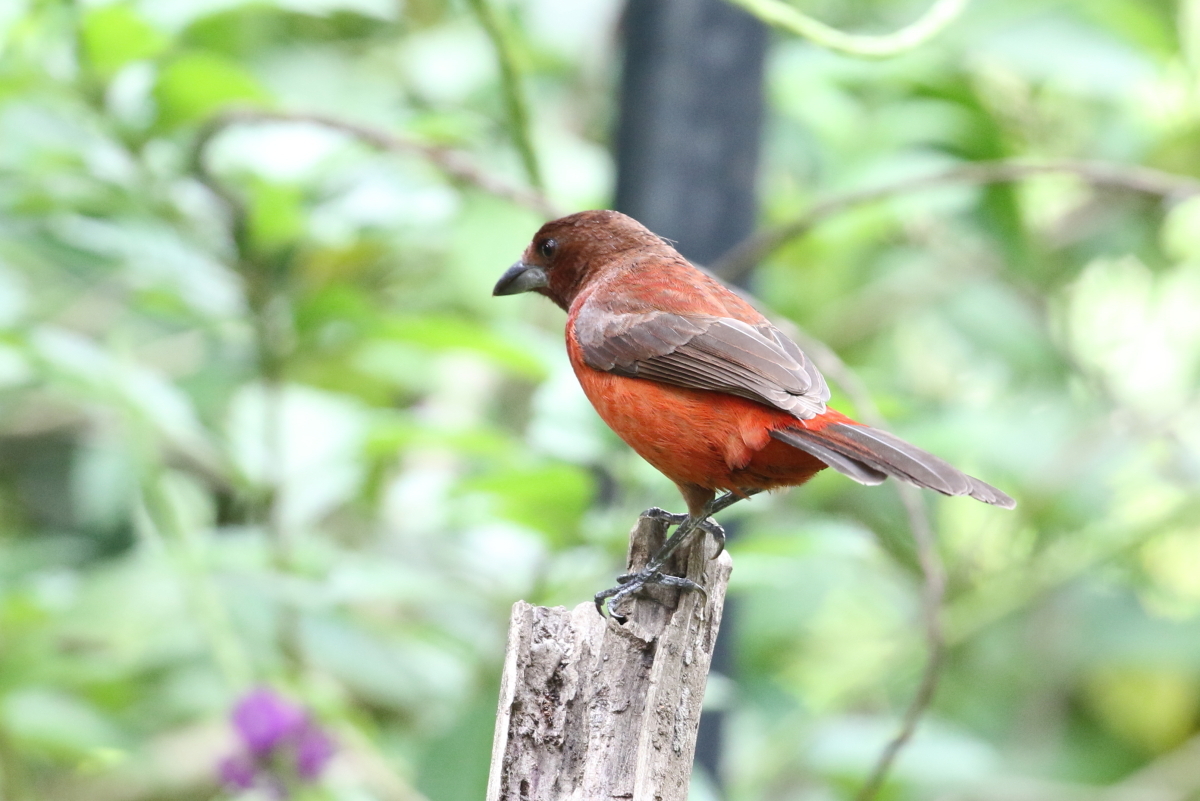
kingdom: Animalia
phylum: Chordata
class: Aves
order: Passeriformes
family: Thraupidae
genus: Ramphocelus
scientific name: Ramphocelus dimidiatus
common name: Crimson-backed tanager
